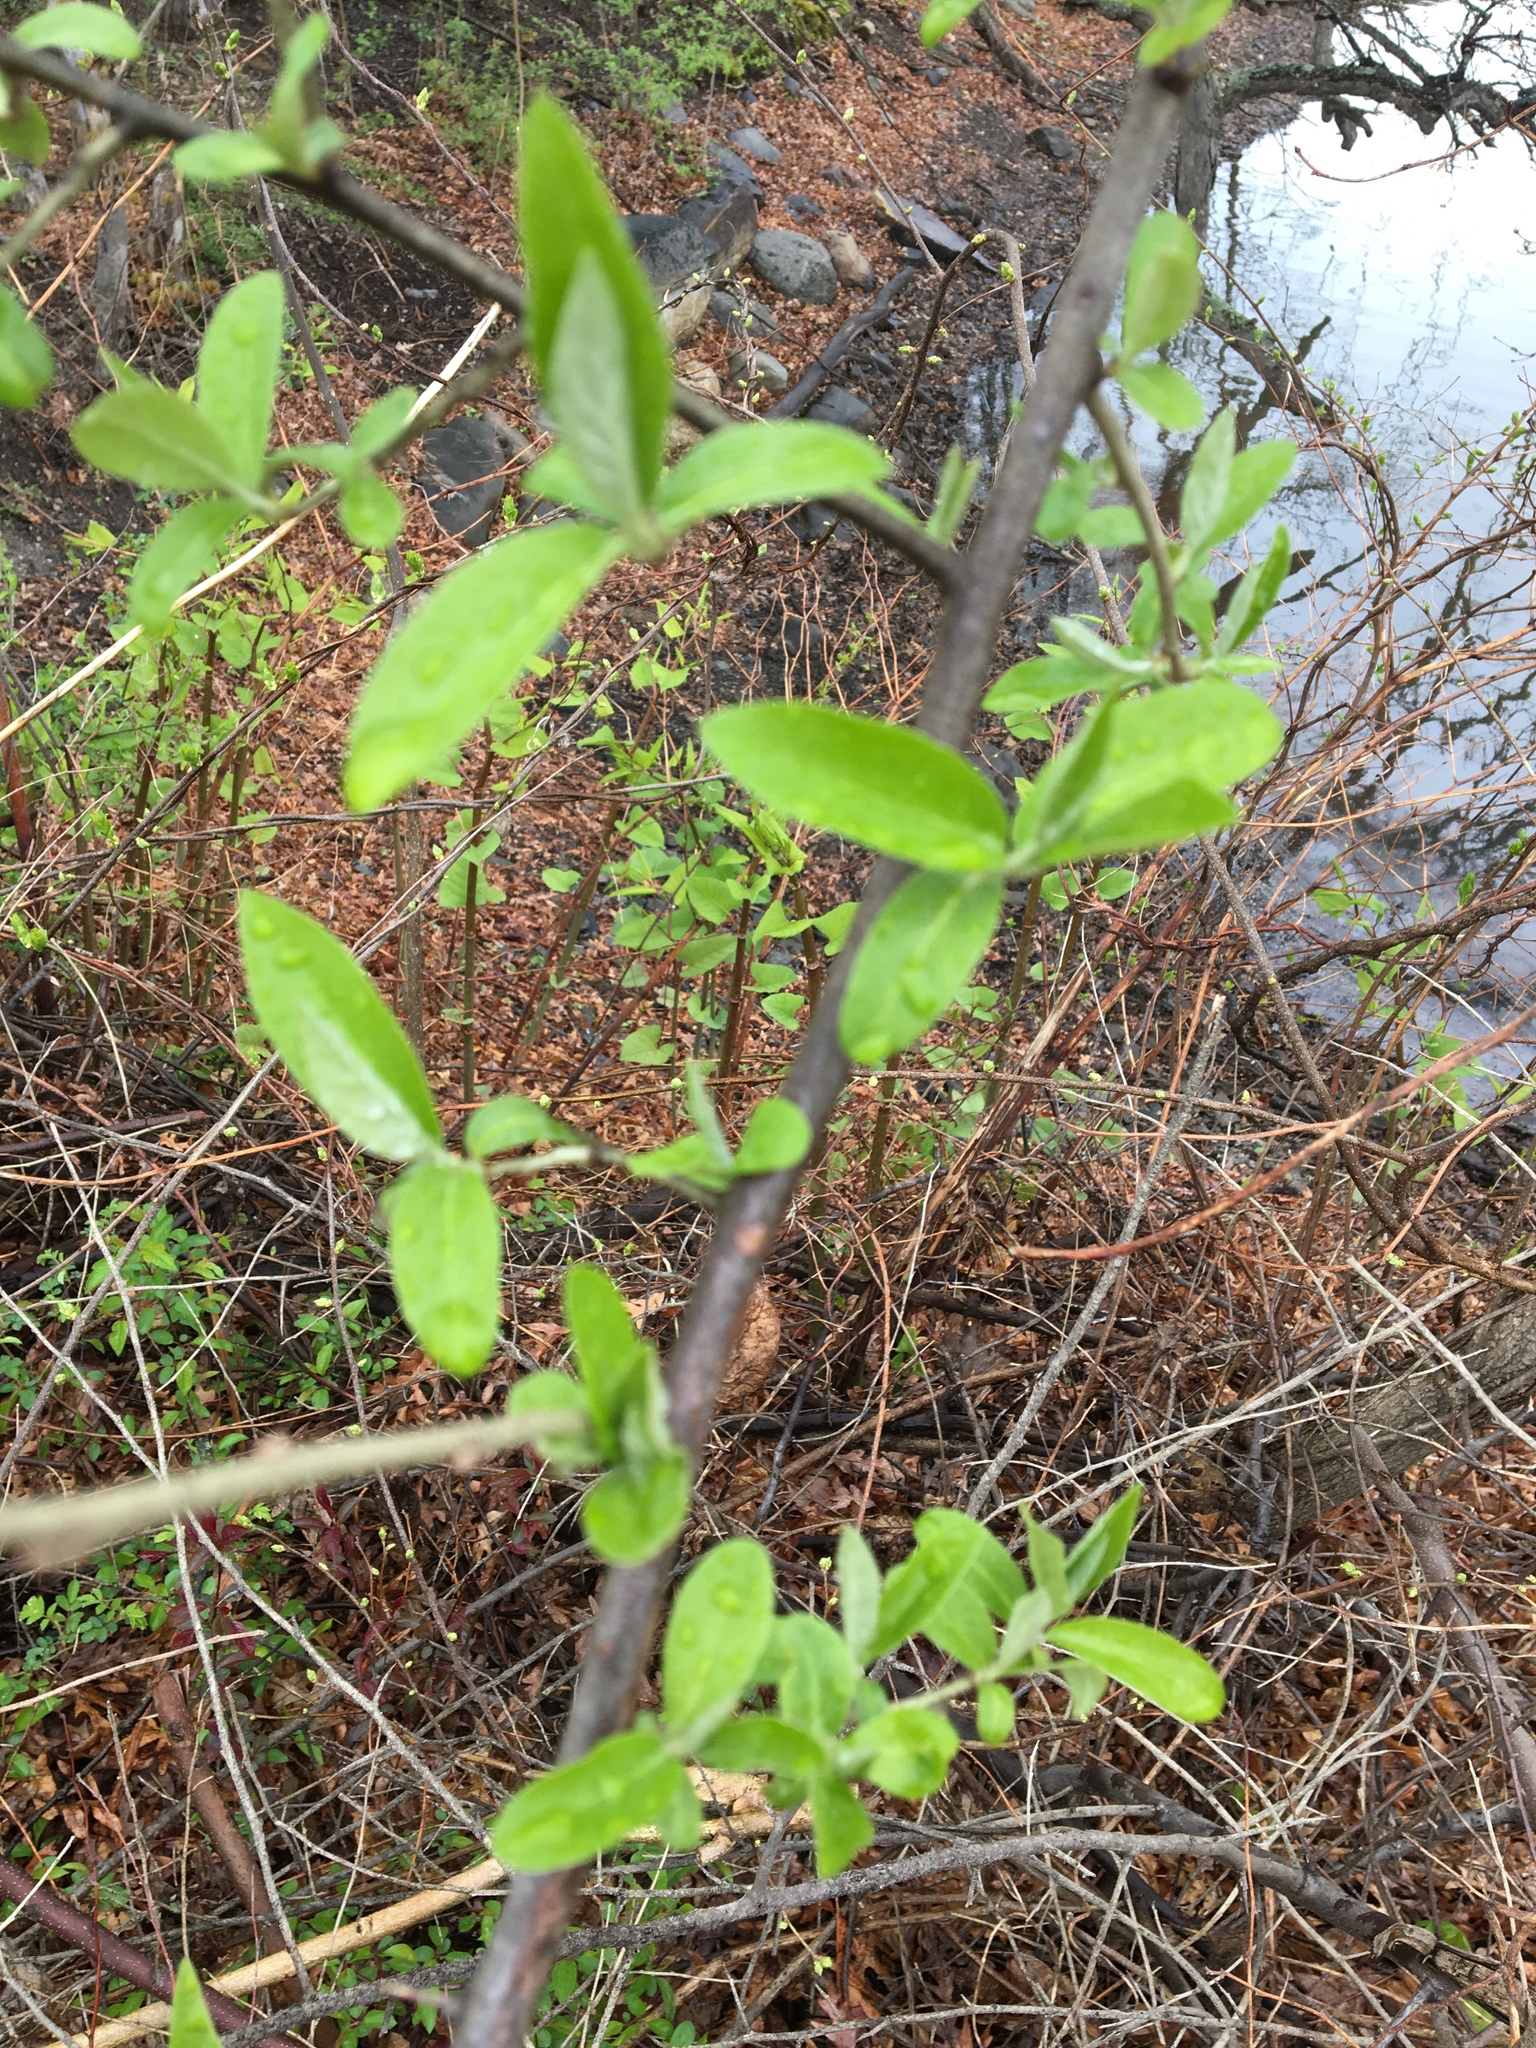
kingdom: Plantae
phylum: Tracheophyta
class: Magnoliopsida
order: Rosales
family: Elaeagnaceae
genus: Elaeagnus
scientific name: Elaeagnus umbellata
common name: Autumn olive
